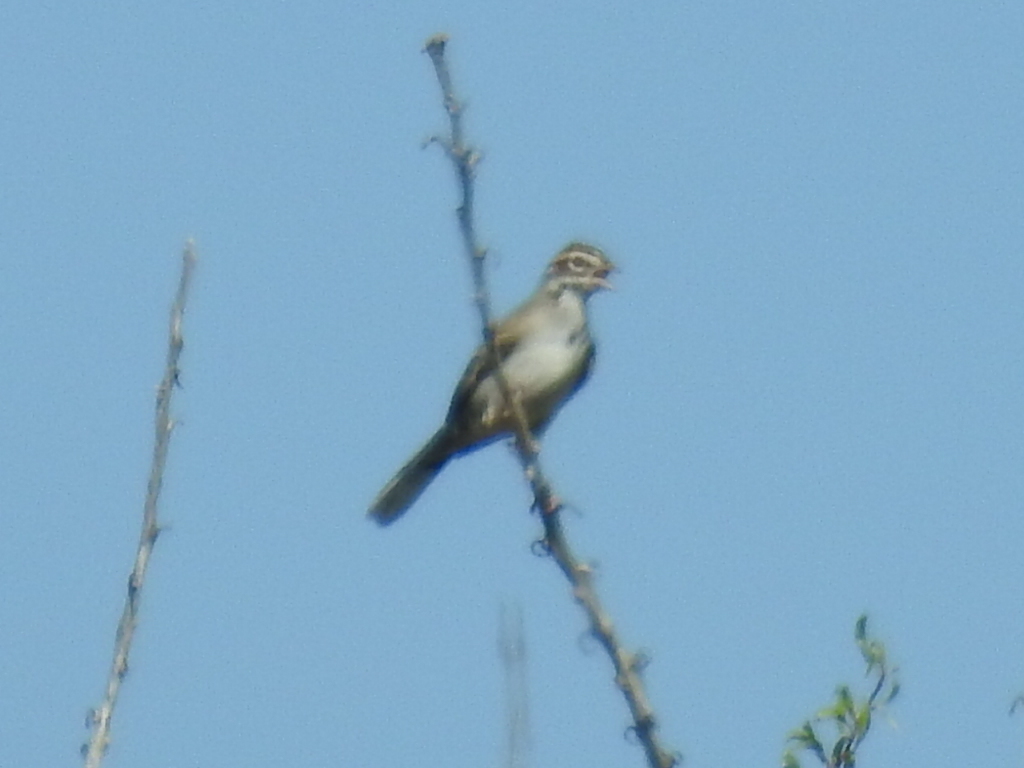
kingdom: Animalia
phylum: Chordata
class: Aves
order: Passeriformes
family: Passerellidae
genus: Chondestes
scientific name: Chondestes grammacus
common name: Lark sparrow
